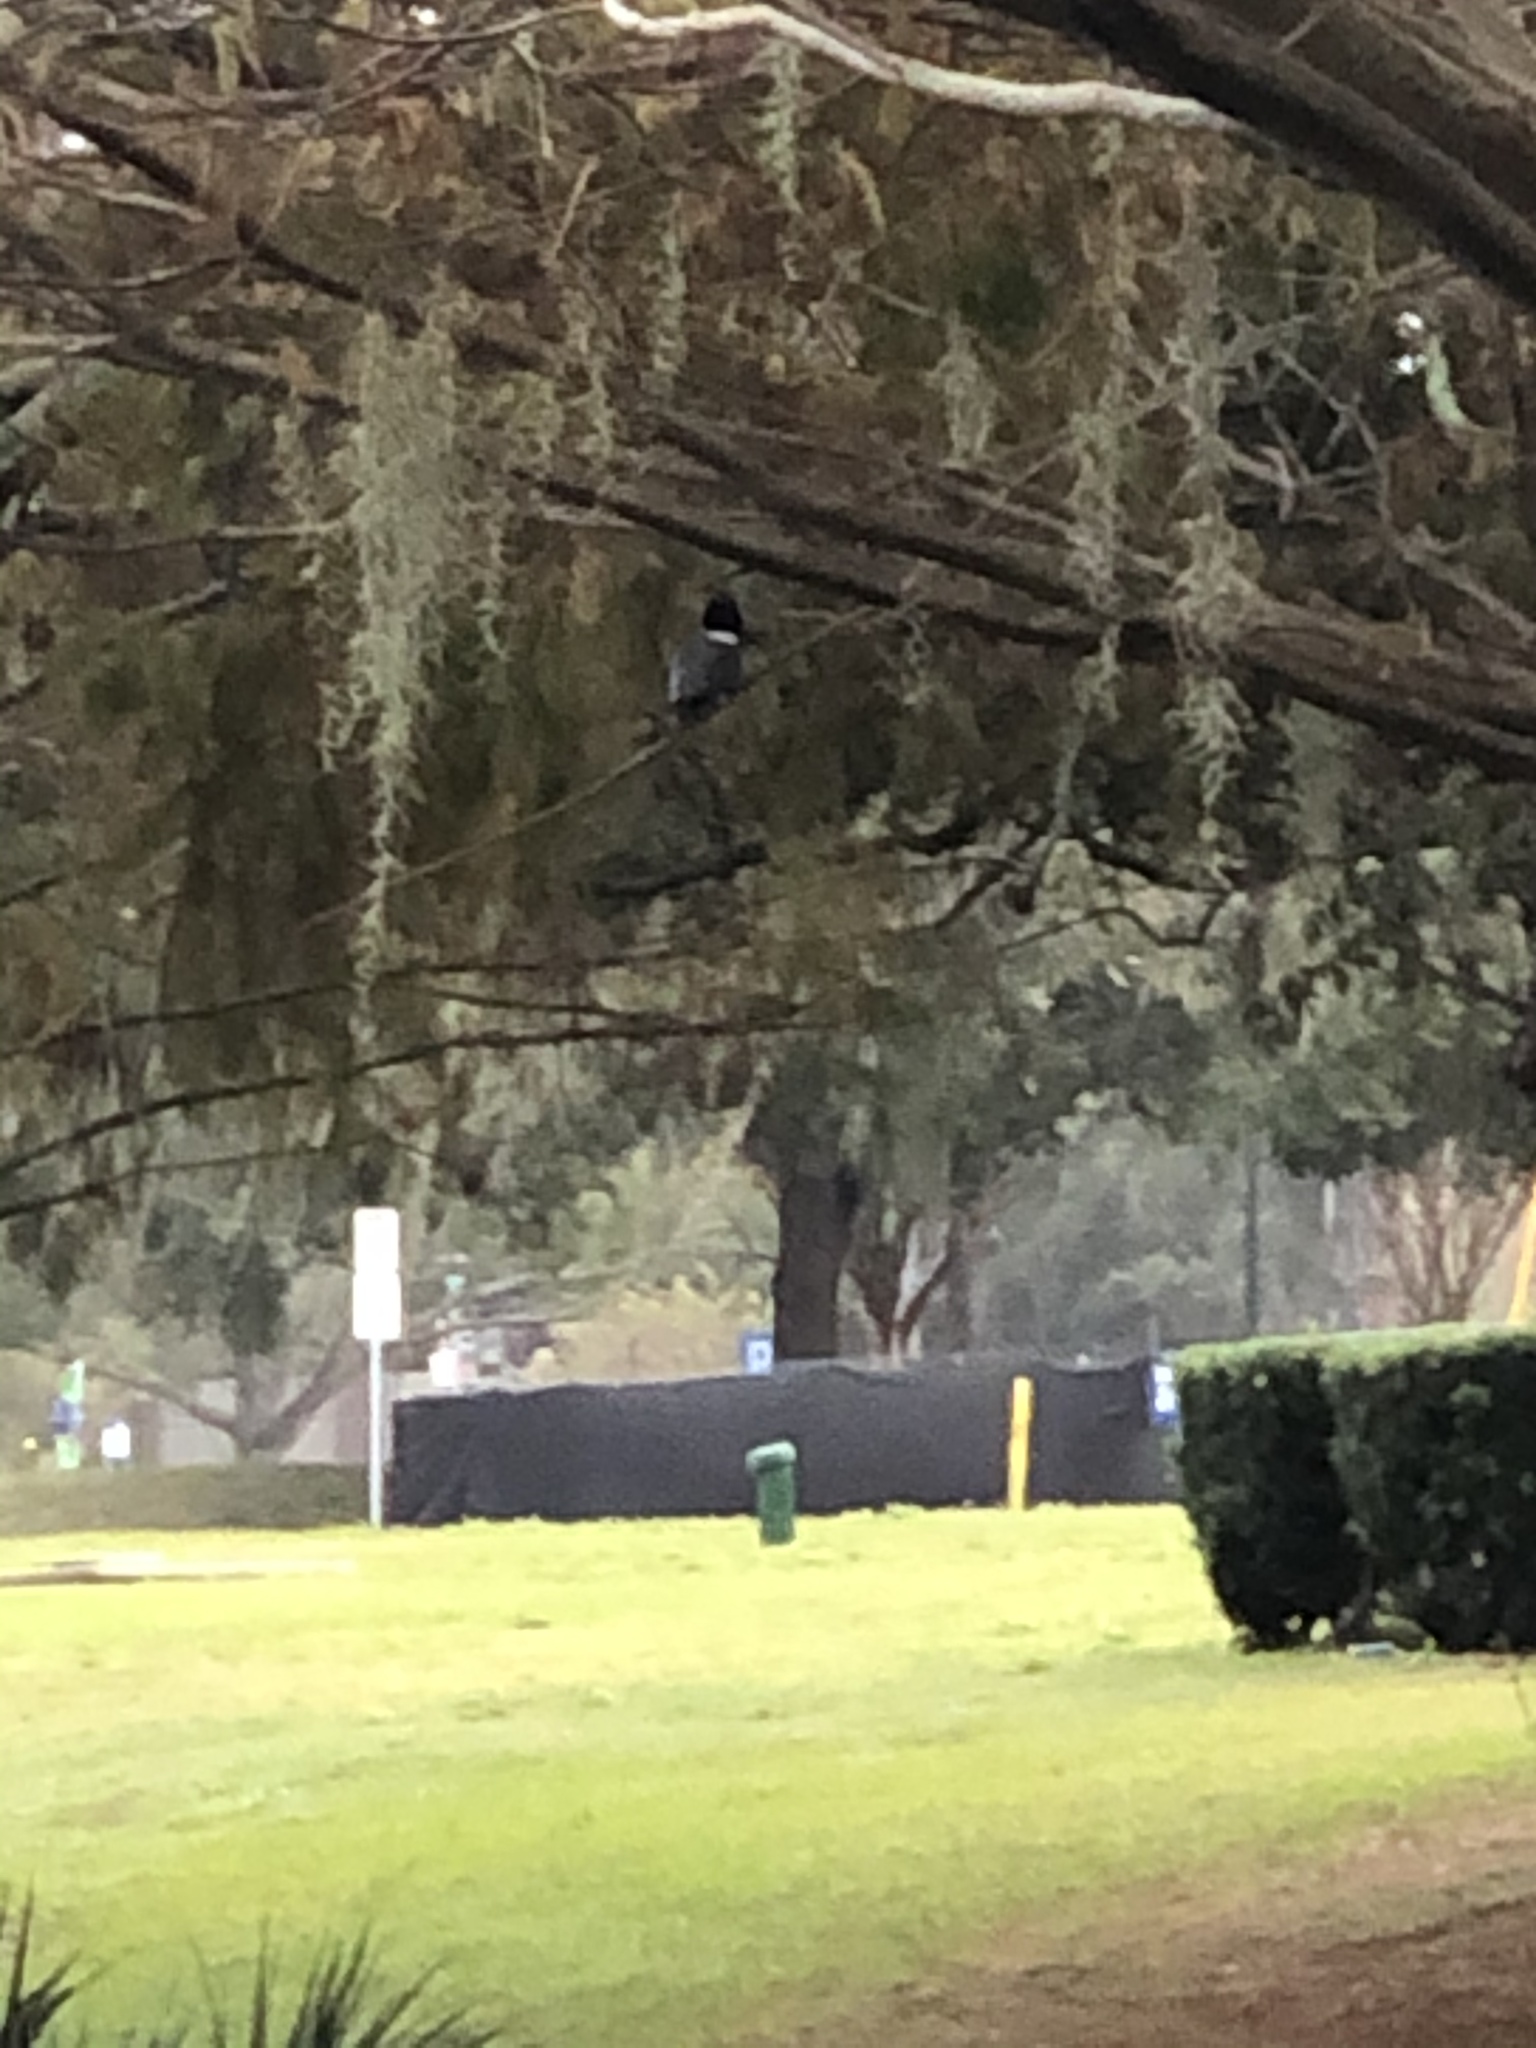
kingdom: Animalia
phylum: Chordata
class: Aves
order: Coraciiformes
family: Alcedinidae
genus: Megaceryle
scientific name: Megaceryle alcyon
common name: Belted kingfisher
